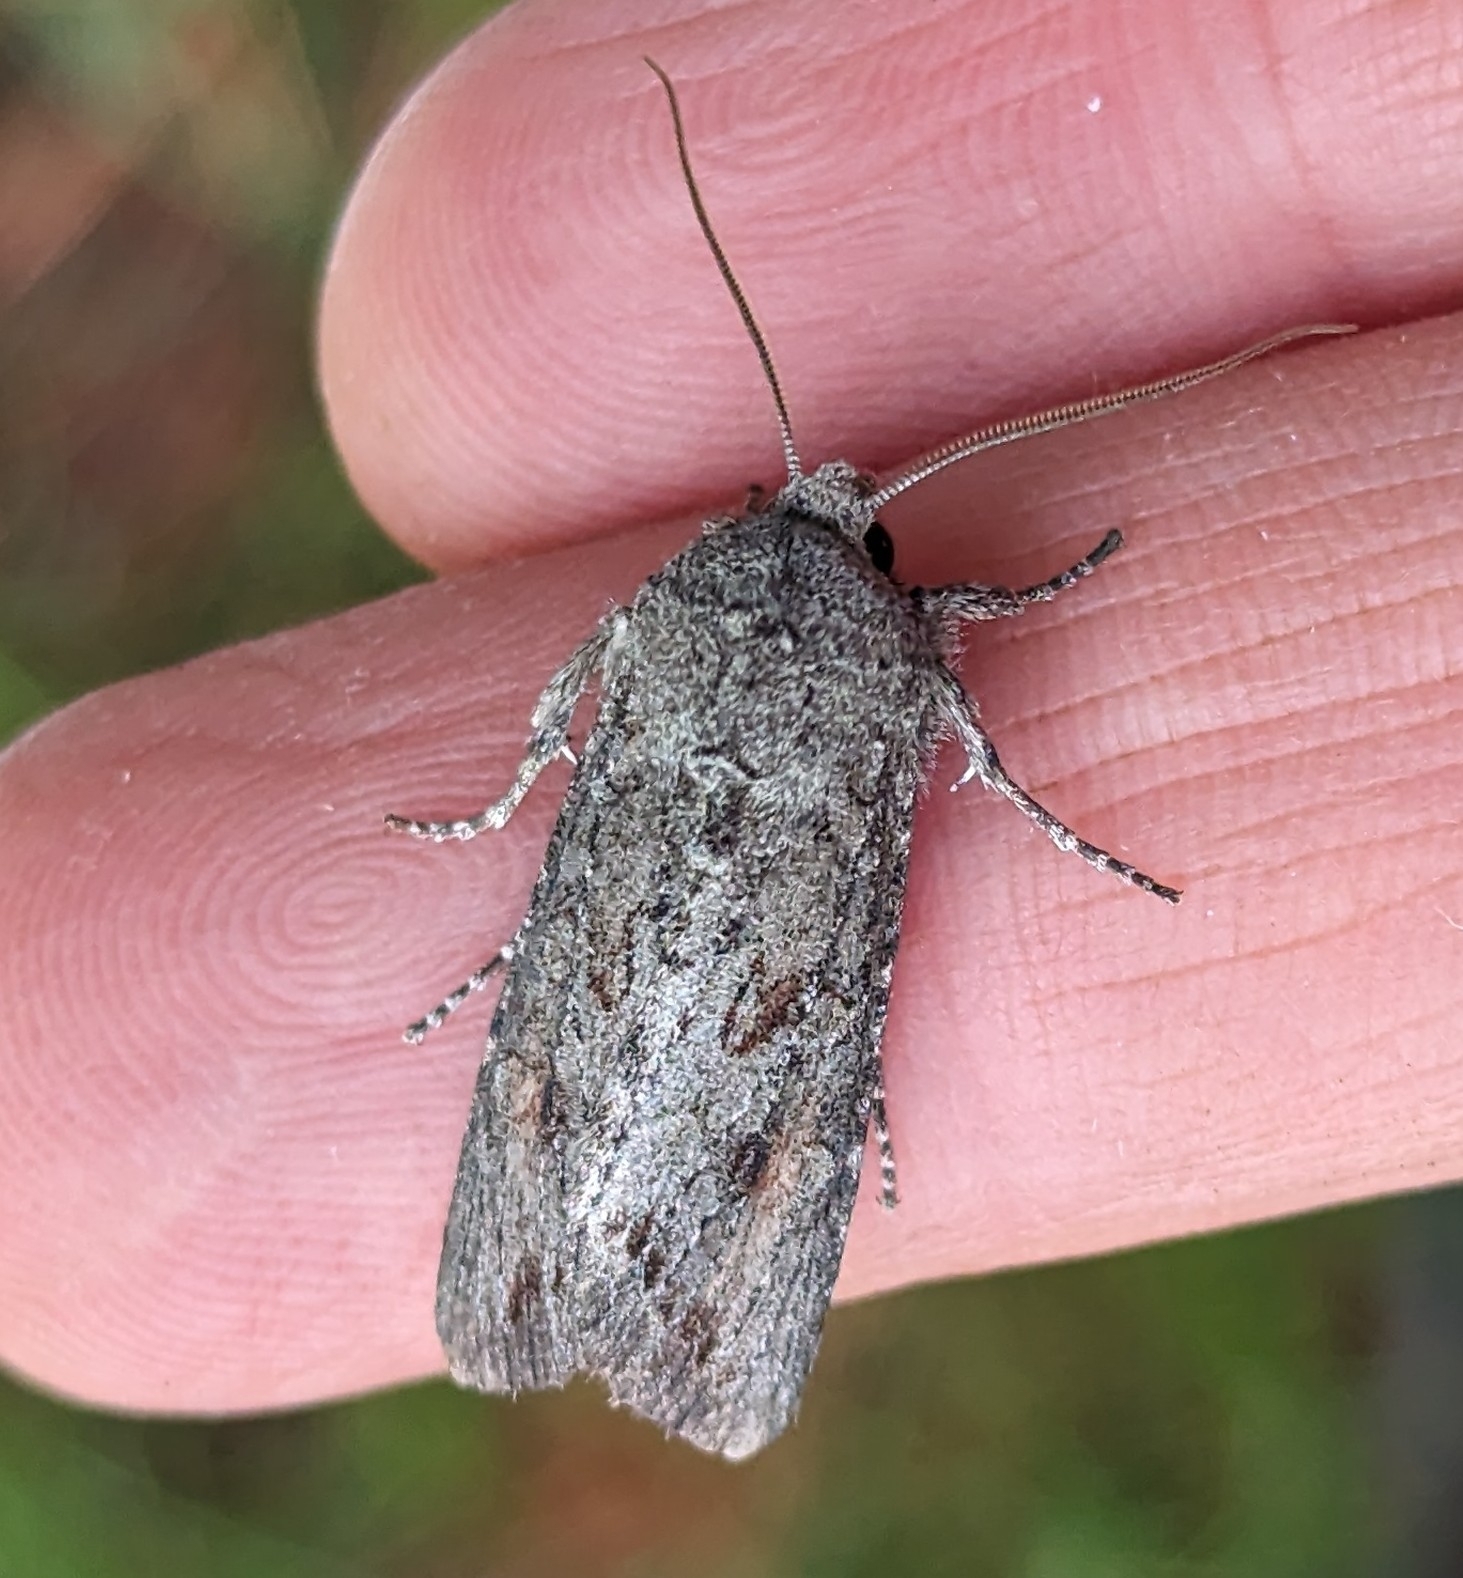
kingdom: Animalia
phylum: Arthropoda
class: Insecta
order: Lepidoptera
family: Noctuidae
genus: Egira
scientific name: Egira curialis
